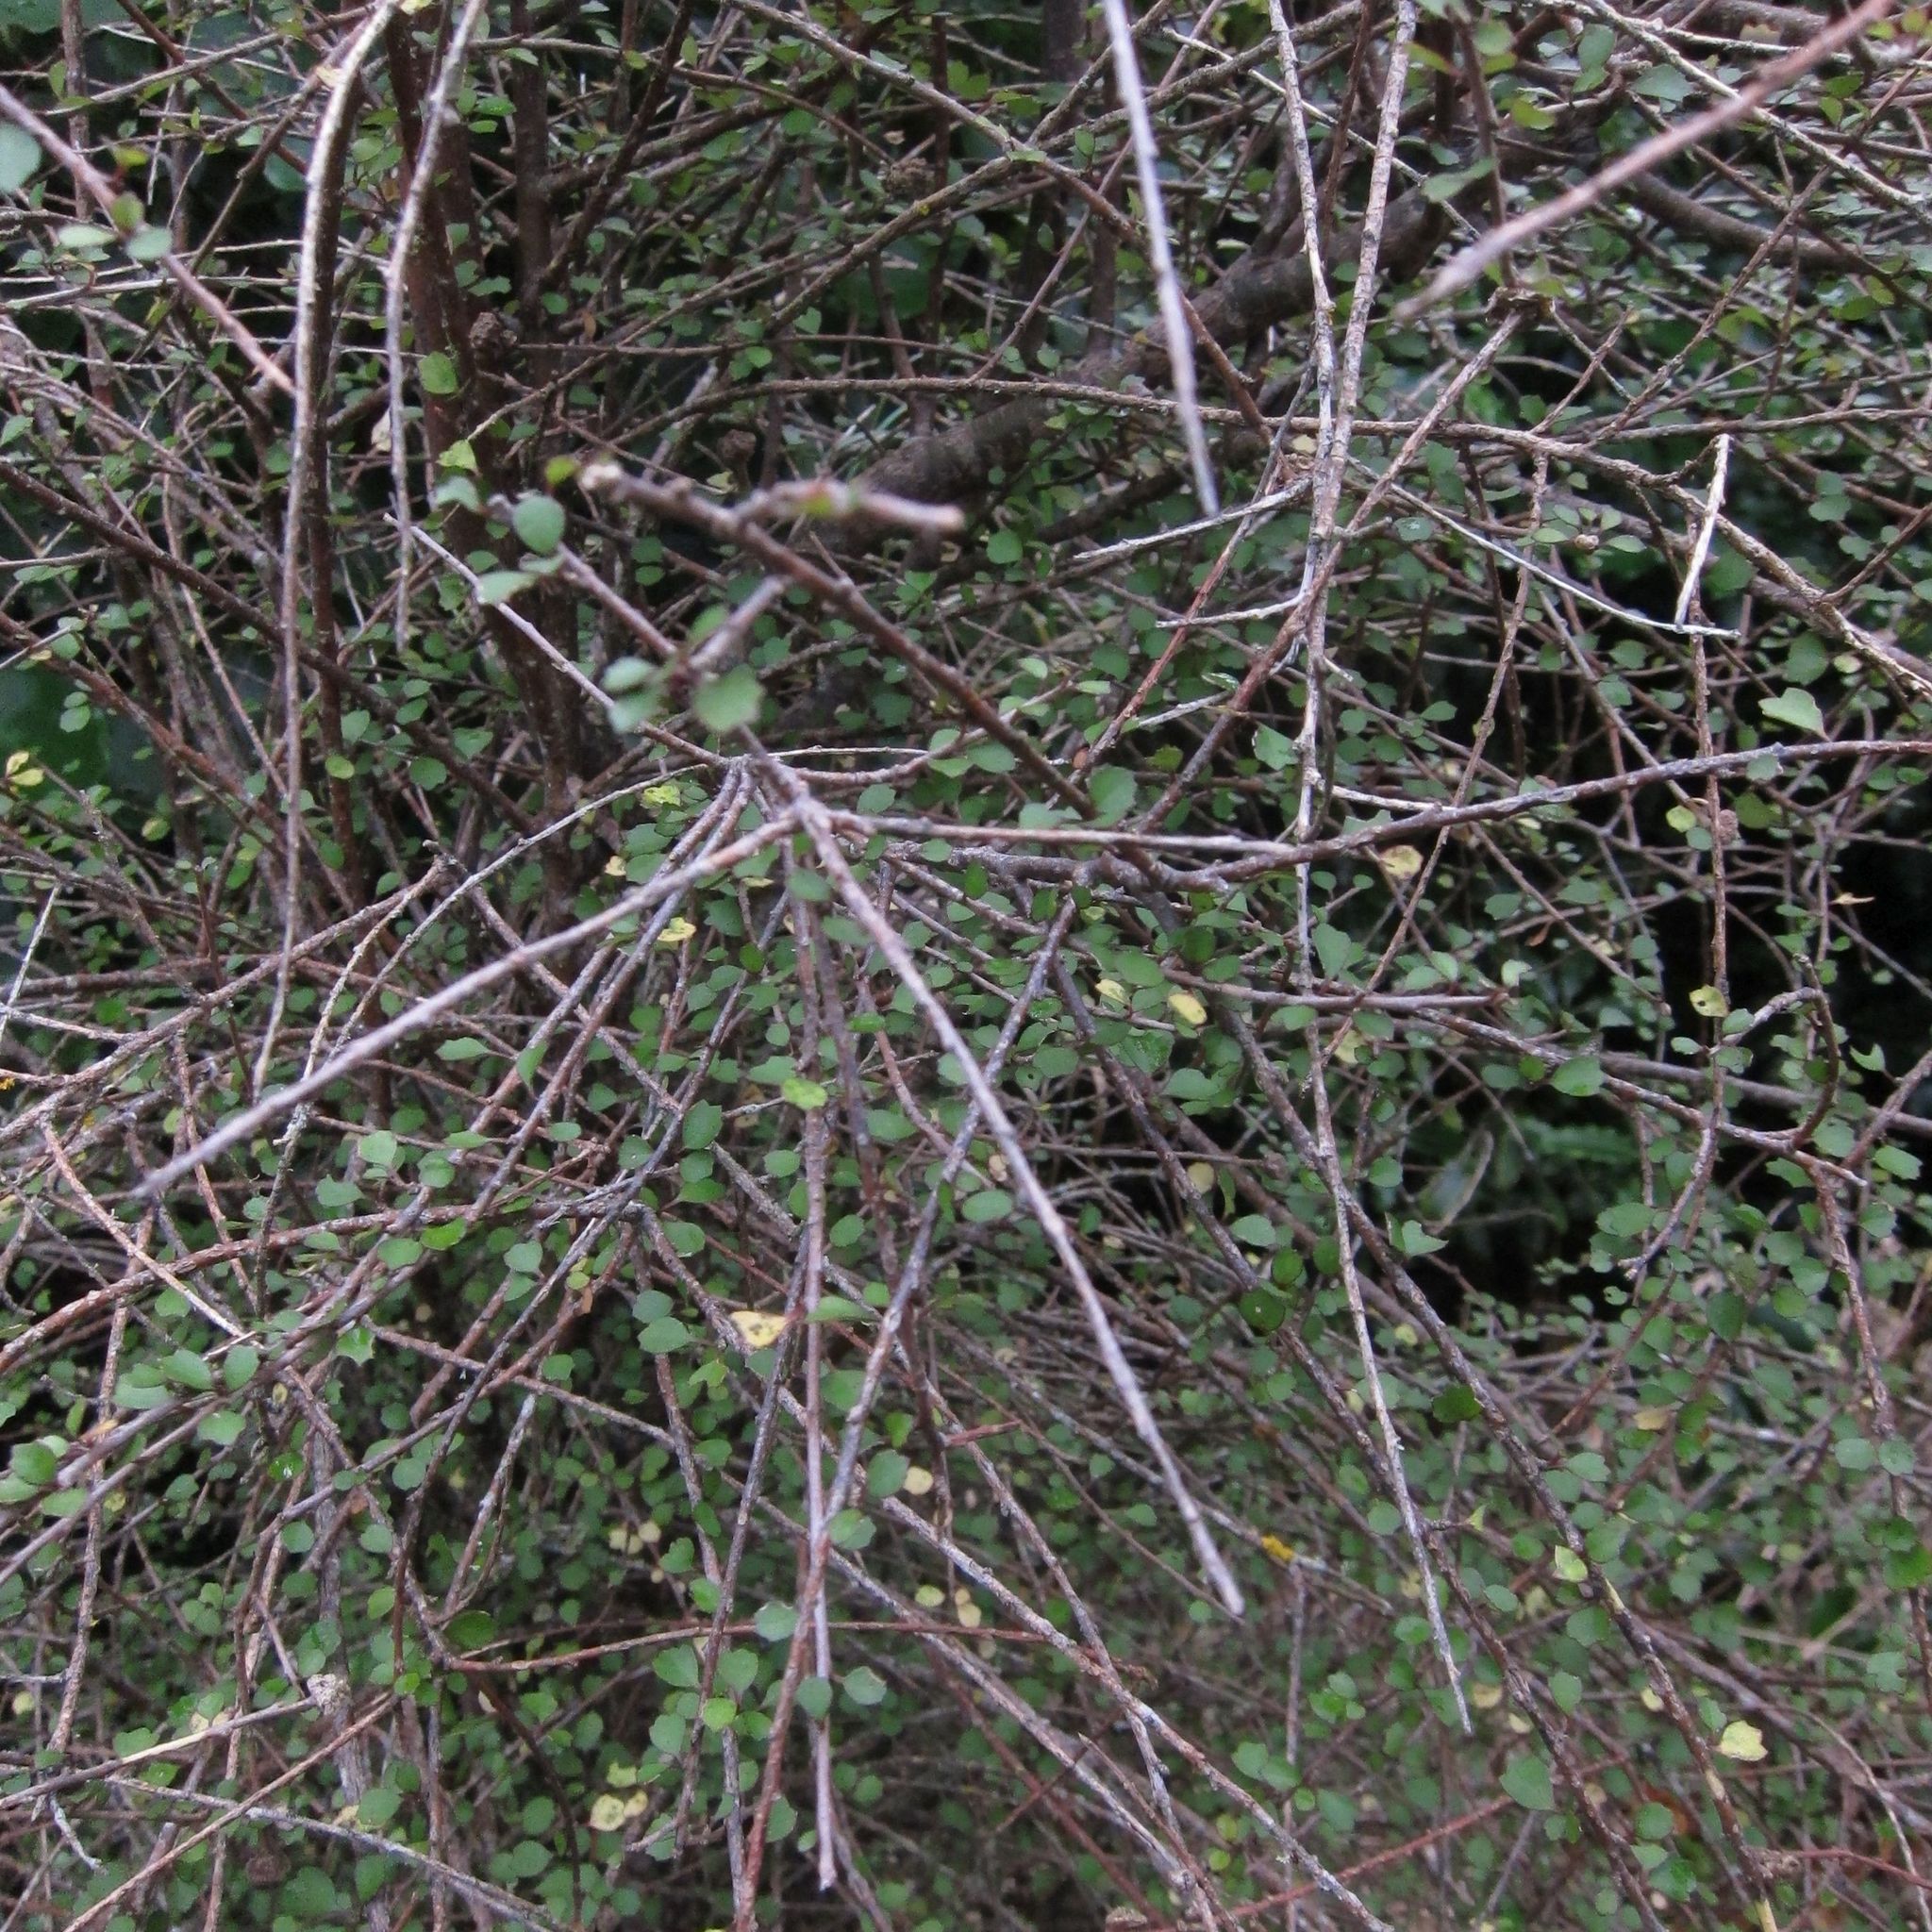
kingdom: Plantae
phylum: Tracheophyta
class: Magnoliopsida
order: Malvales
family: Malvaceae
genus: Hoheria
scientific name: Hoheria angustifolia
